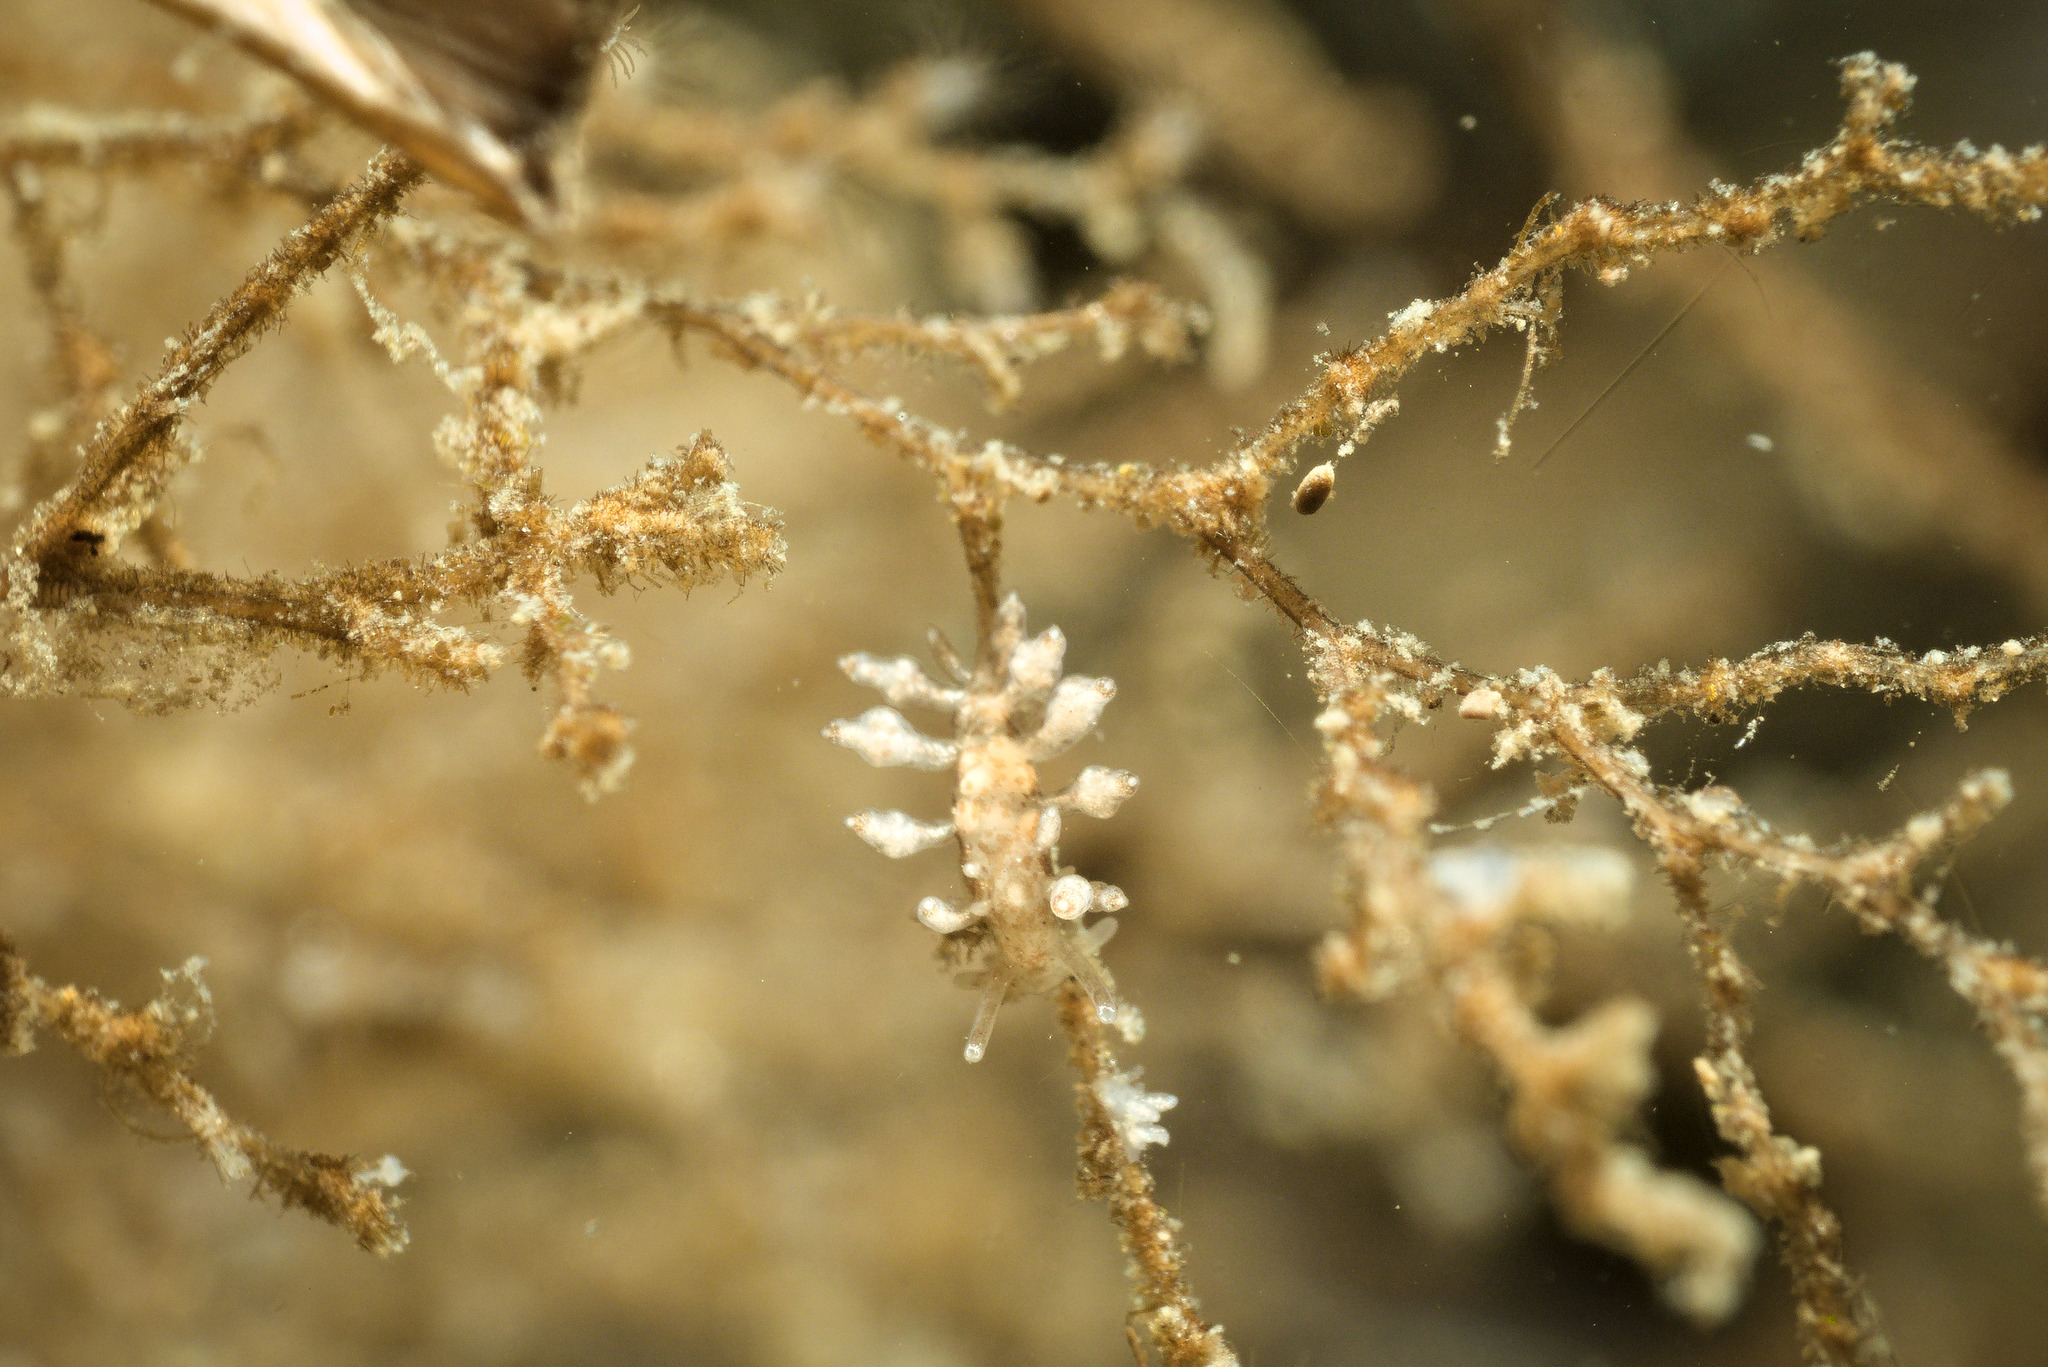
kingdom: Animalia
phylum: Mollusca
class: Gastropoda
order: Nudibranchia
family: Eubranchidae
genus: Eubranchus
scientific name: Eubranchus scintillans
